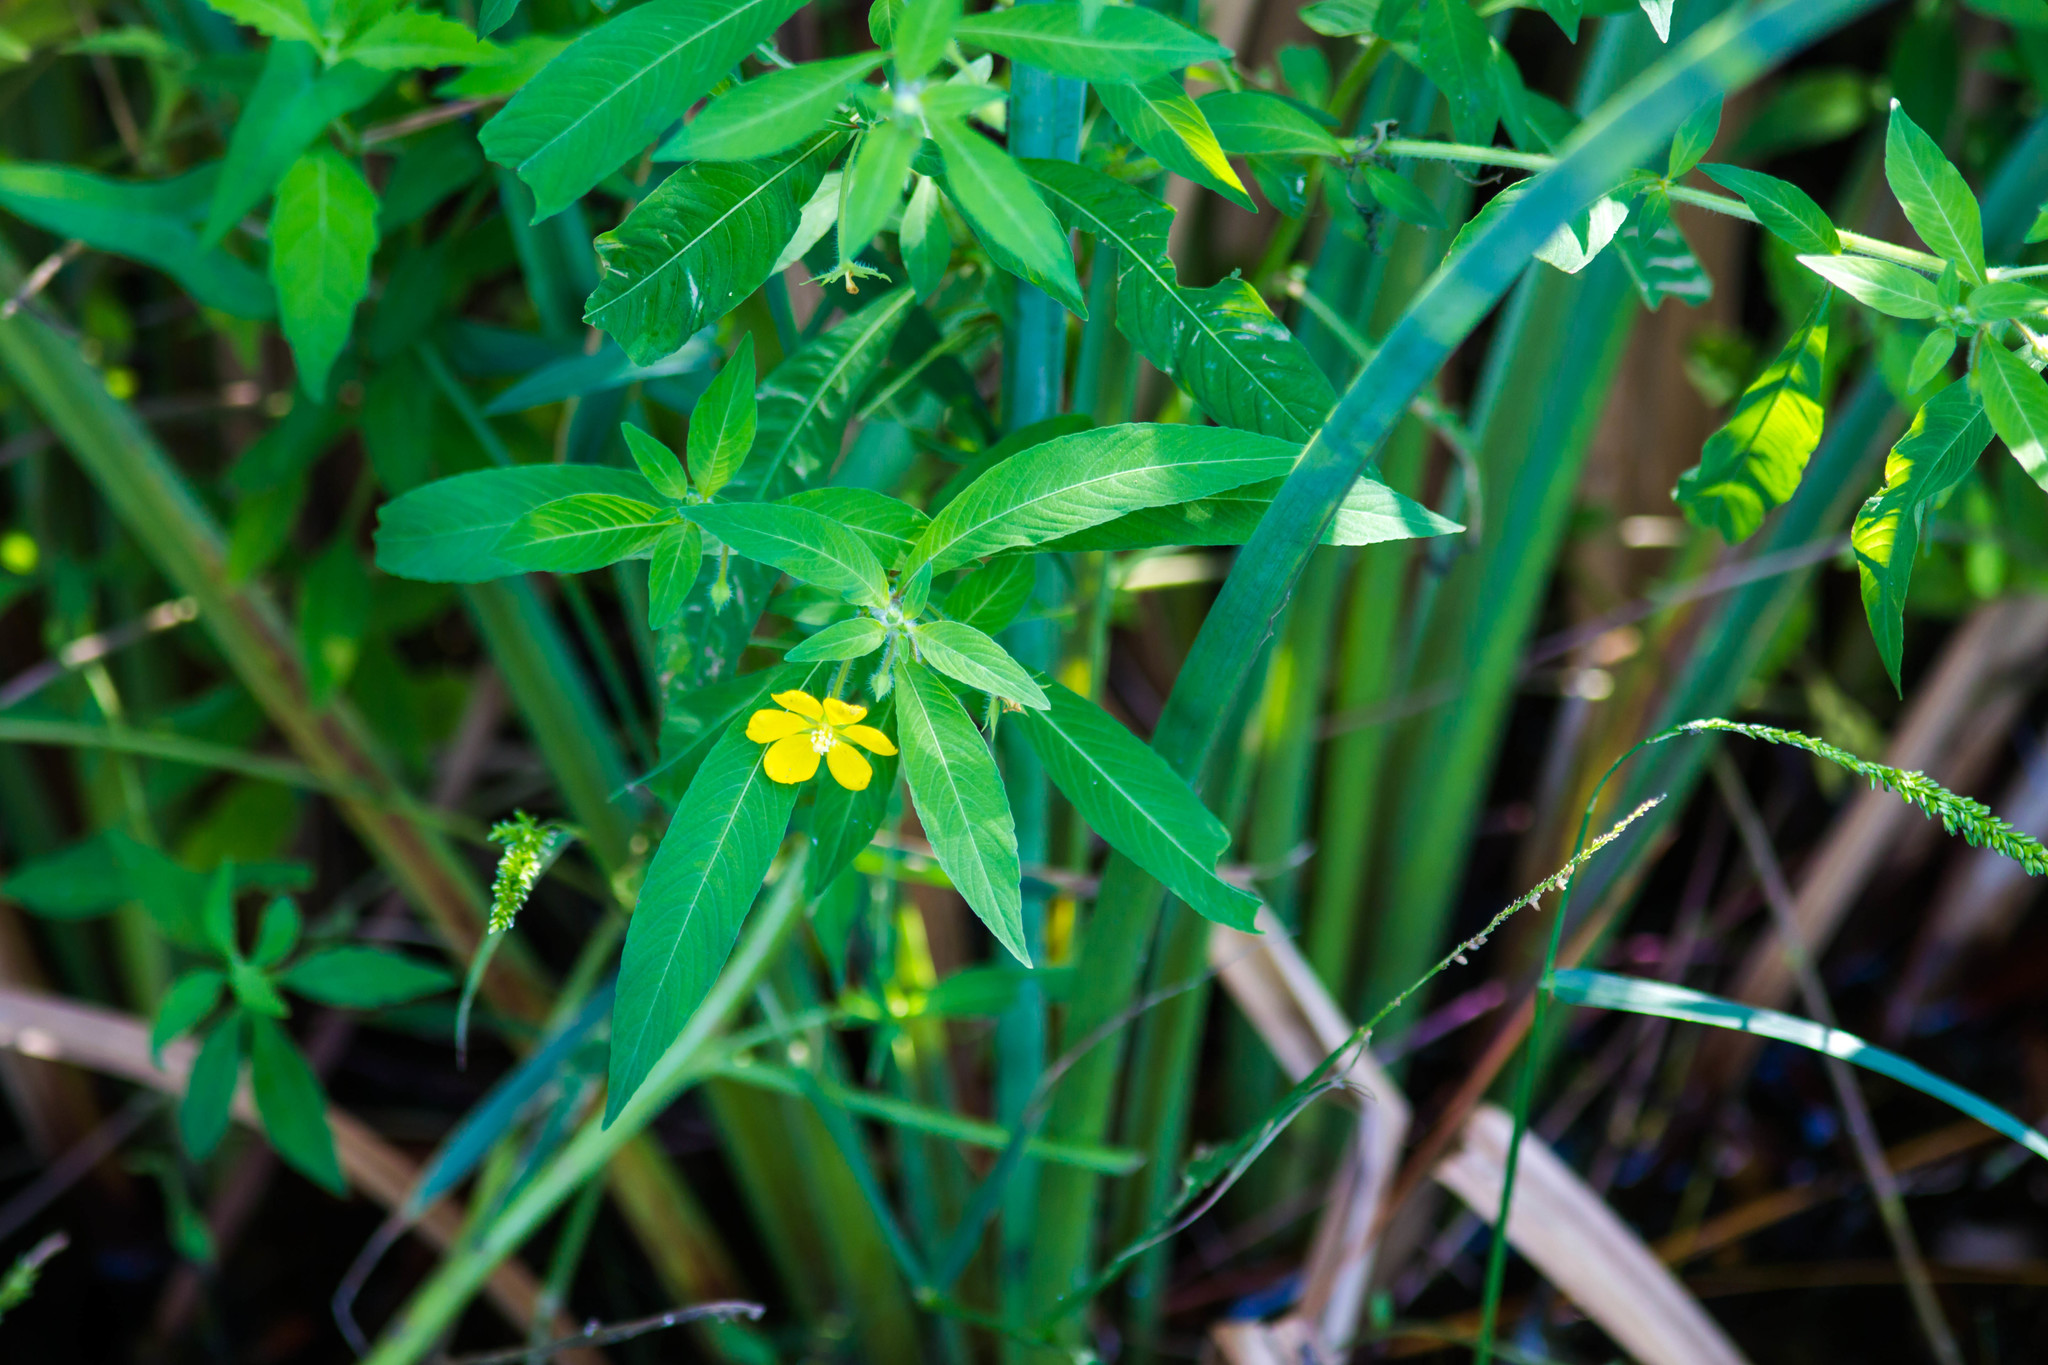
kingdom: Plantae
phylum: Tracheophyta
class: Magnoliopsida
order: Myrtales
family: Onagraceae
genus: Ludwigia
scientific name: Ludwigia leptocarpa
